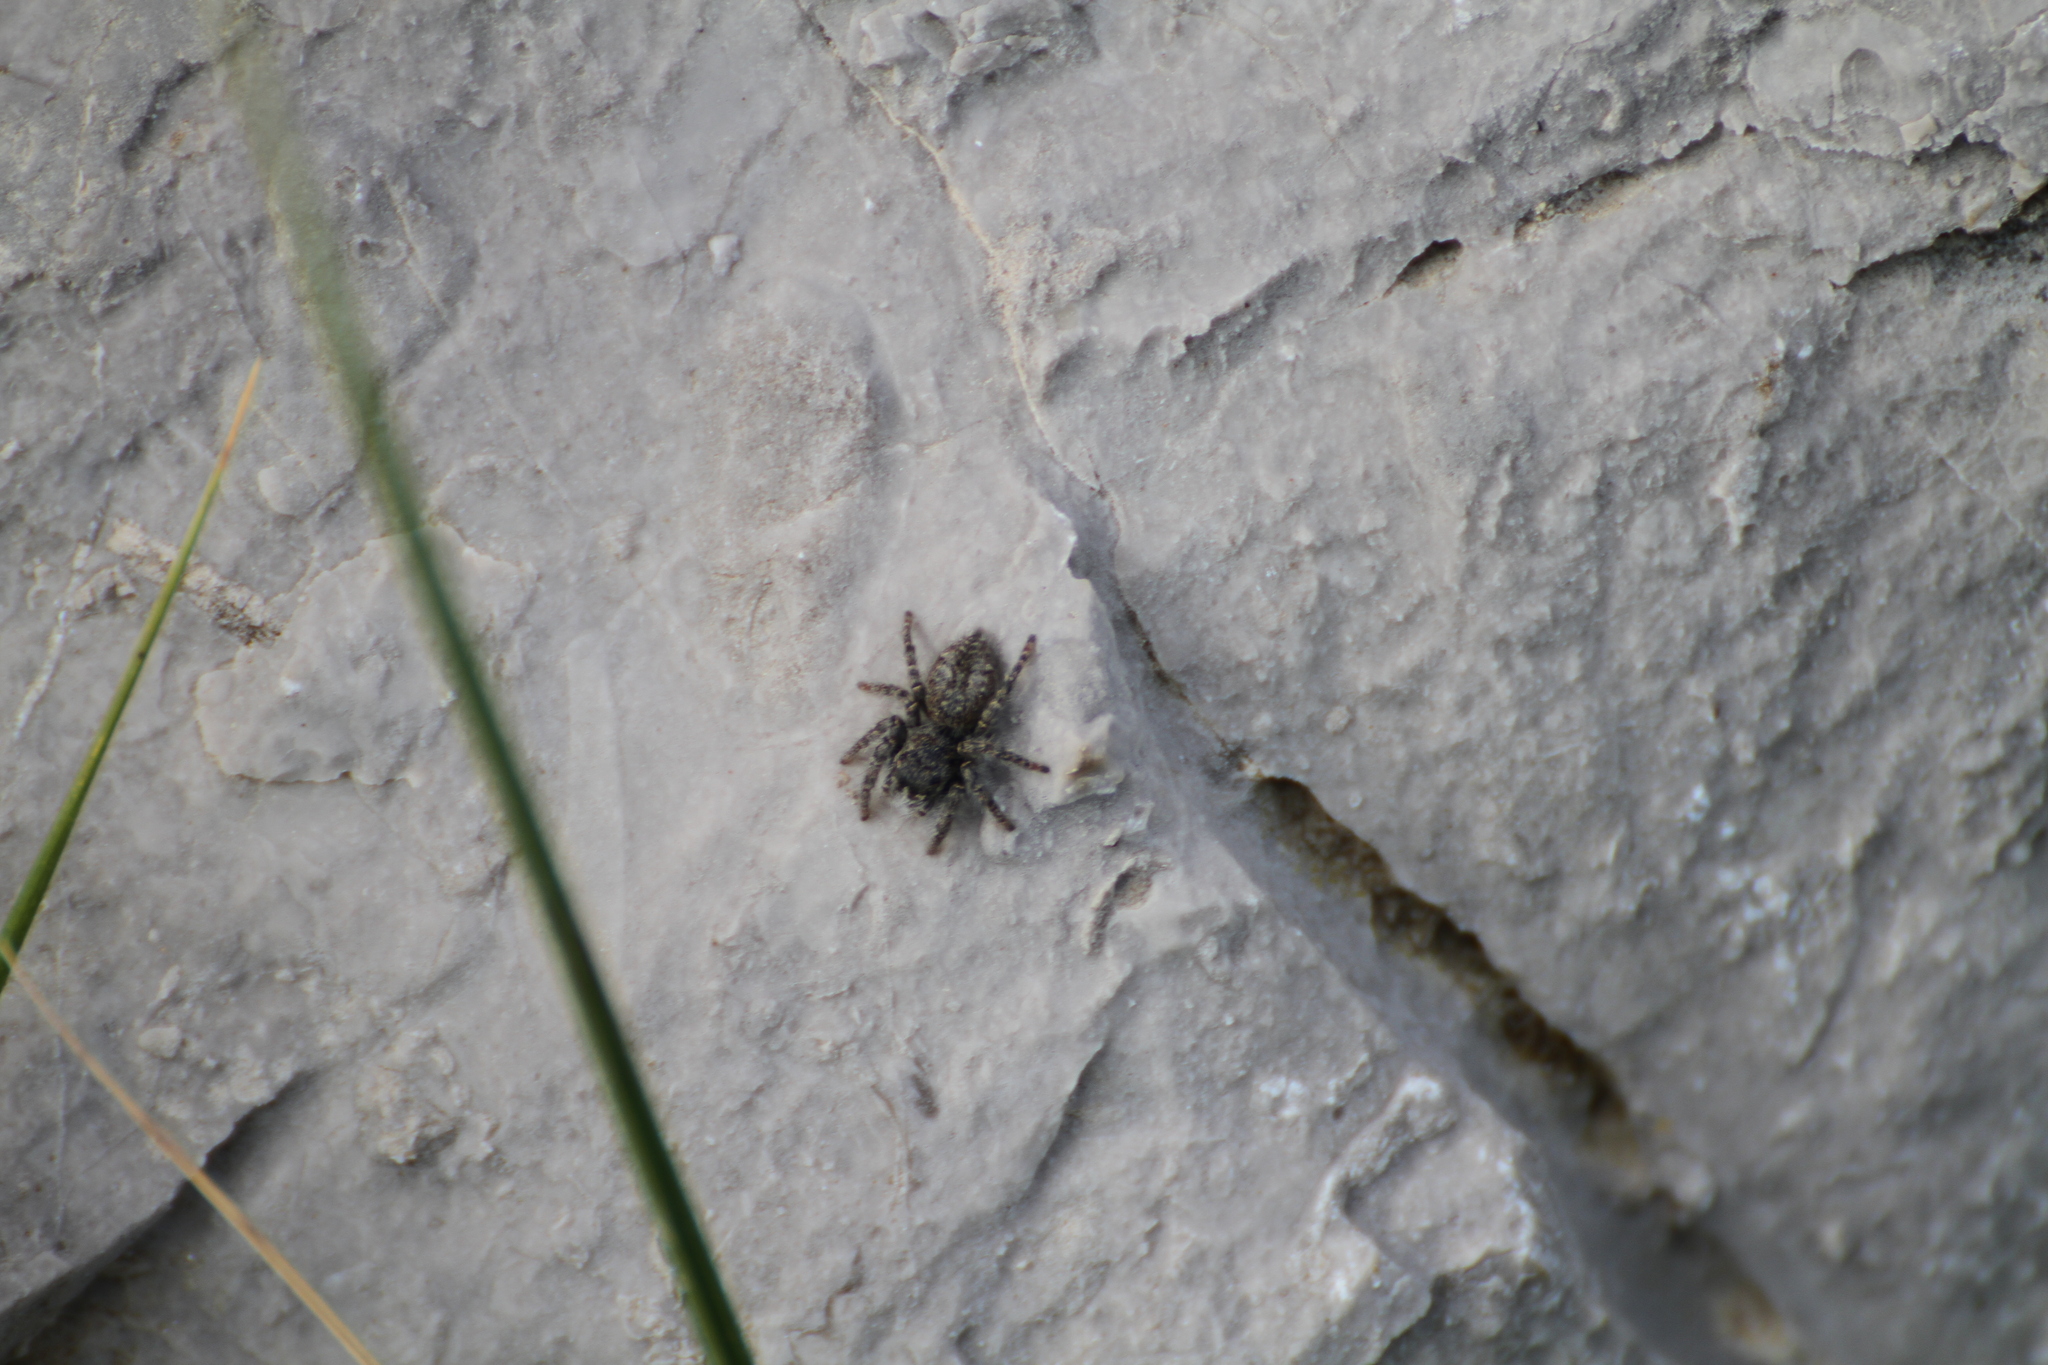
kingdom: Animalia
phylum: Arthropoda
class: Arachnida
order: Araneae
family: Salticidae
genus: Philaeus
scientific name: Philaeus chrysops
